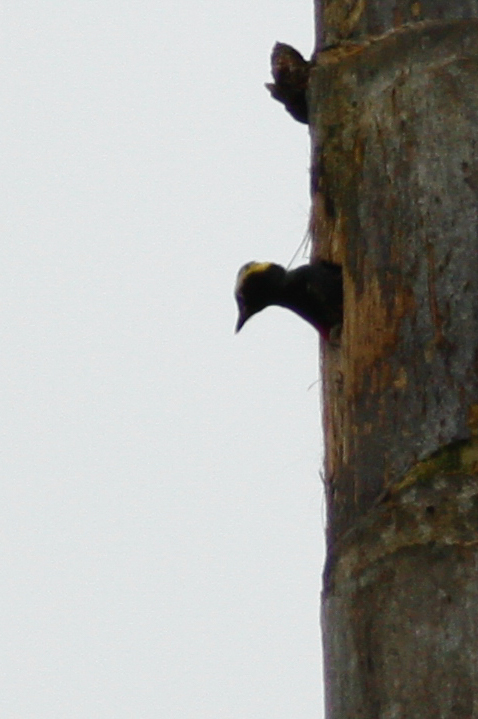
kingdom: Animalia
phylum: Chordata
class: Aves
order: Piciformes
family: Picidae
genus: Melanerpes
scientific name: Melanerpes cruentatus
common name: Yellow-tufted woodpecker
